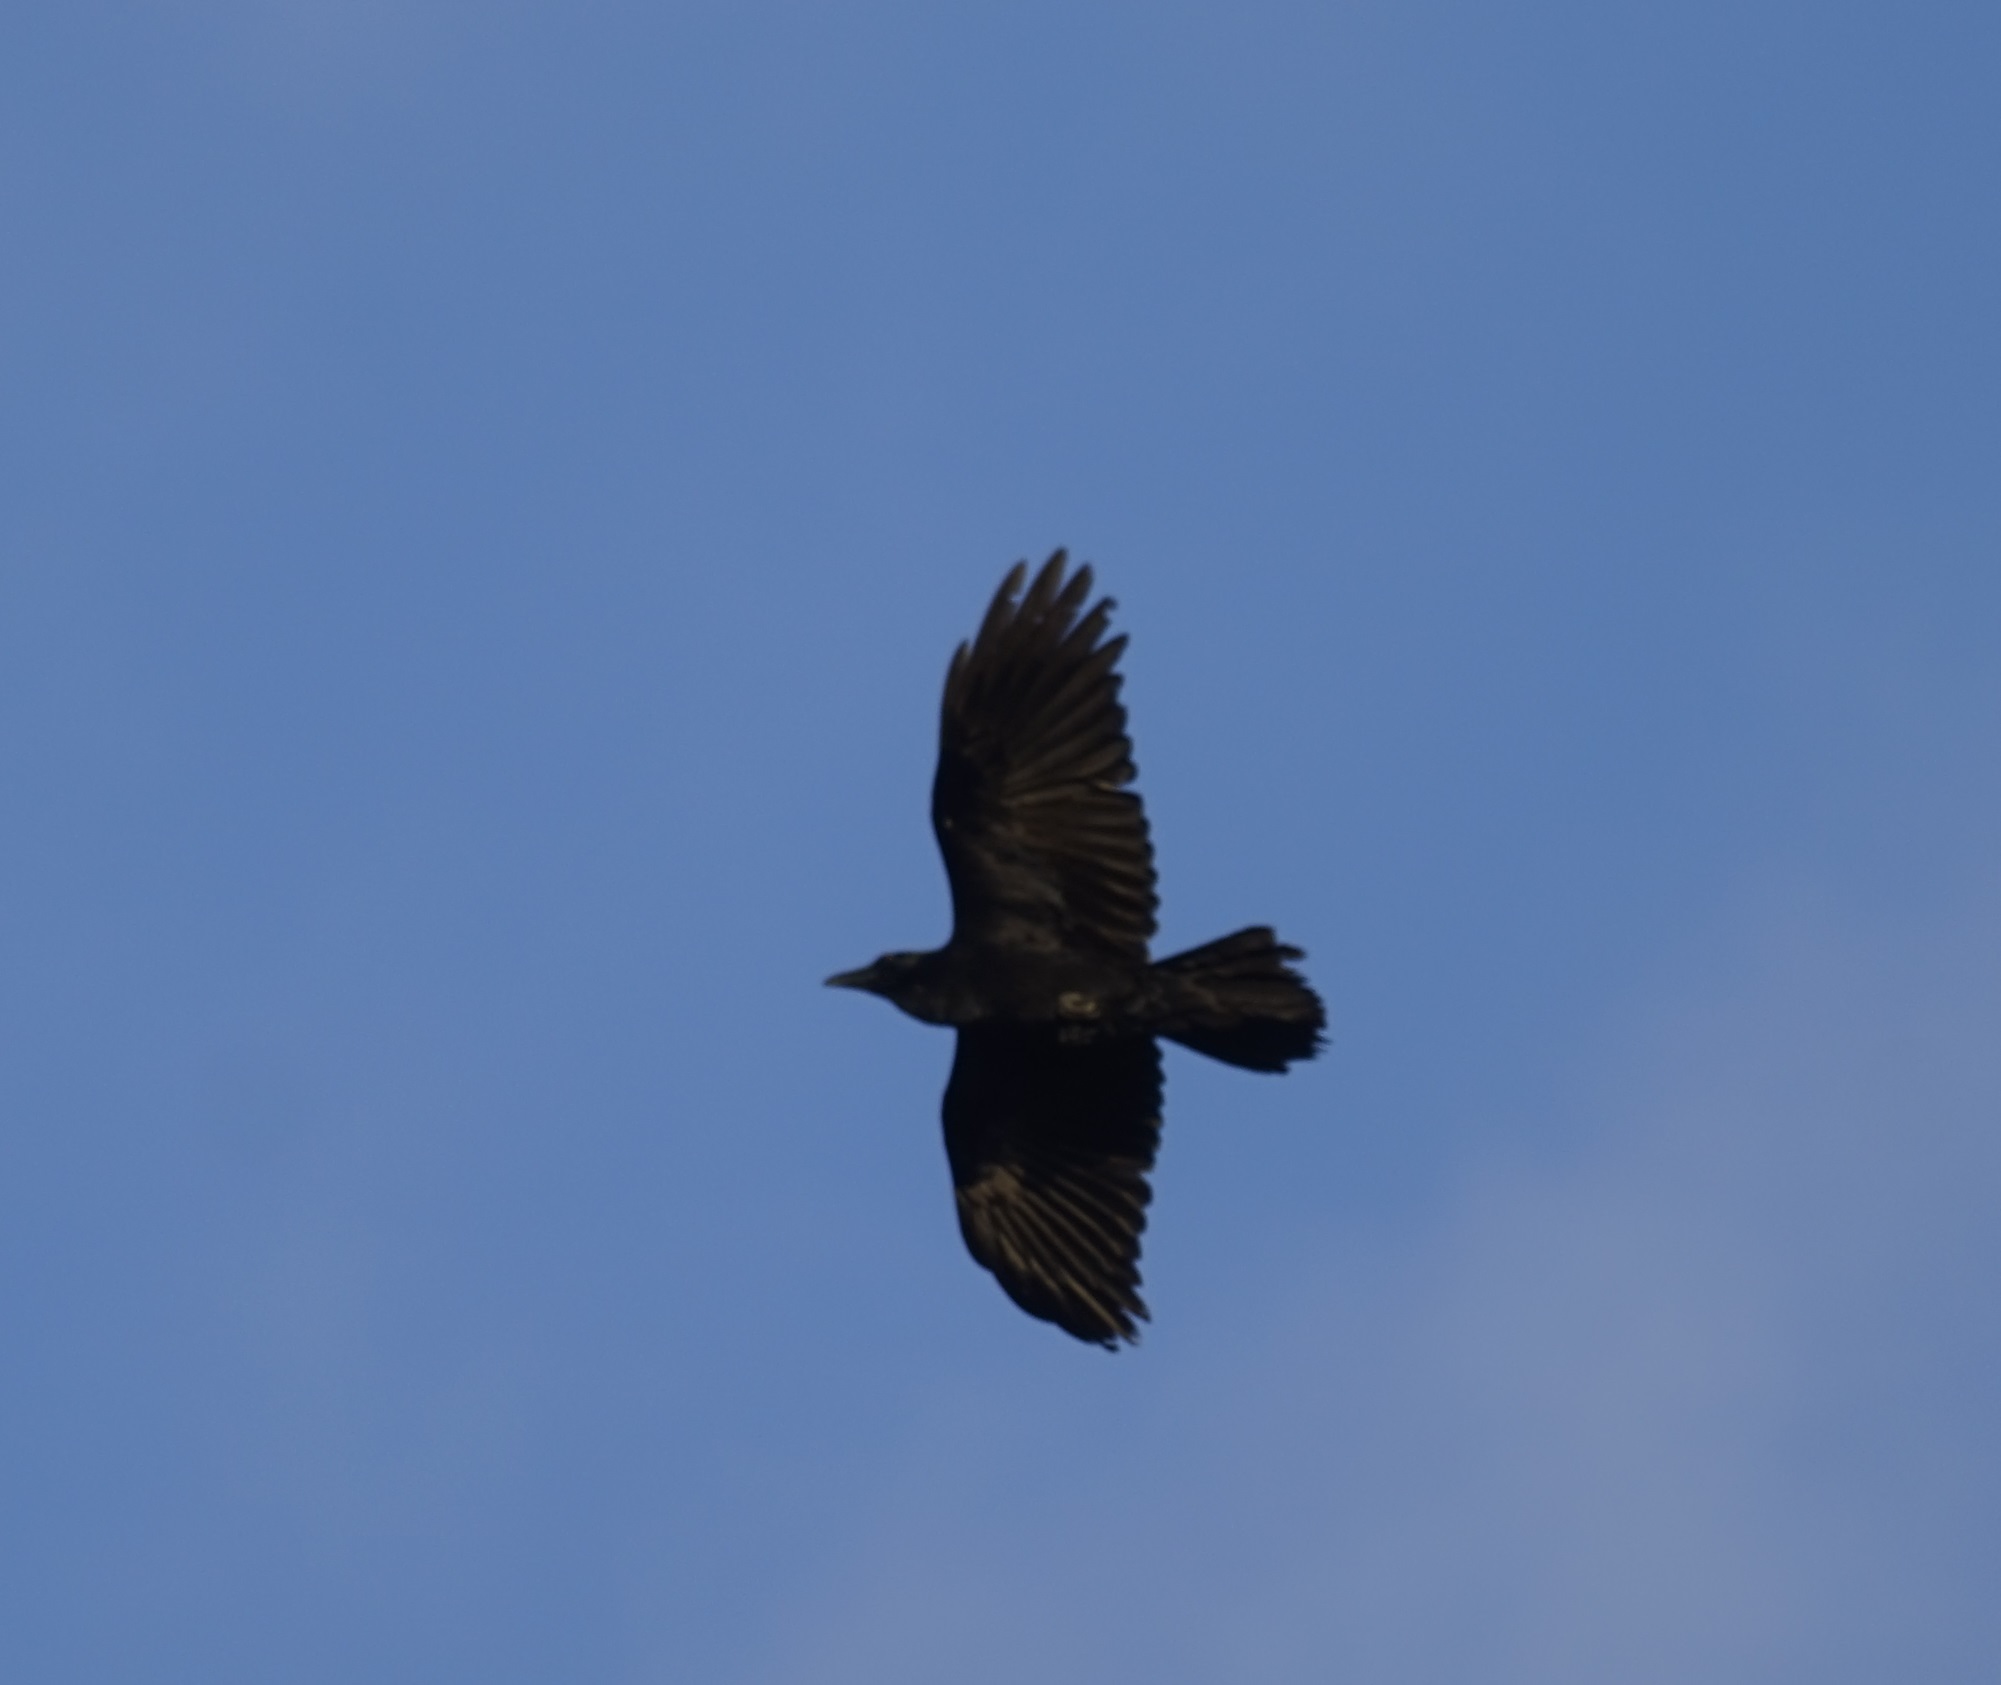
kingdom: Animalia
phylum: Chordata
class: Aves
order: Passeriformes
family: Corvidae
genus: Corvus
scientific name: Corvus coronoides
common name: Australian raven
